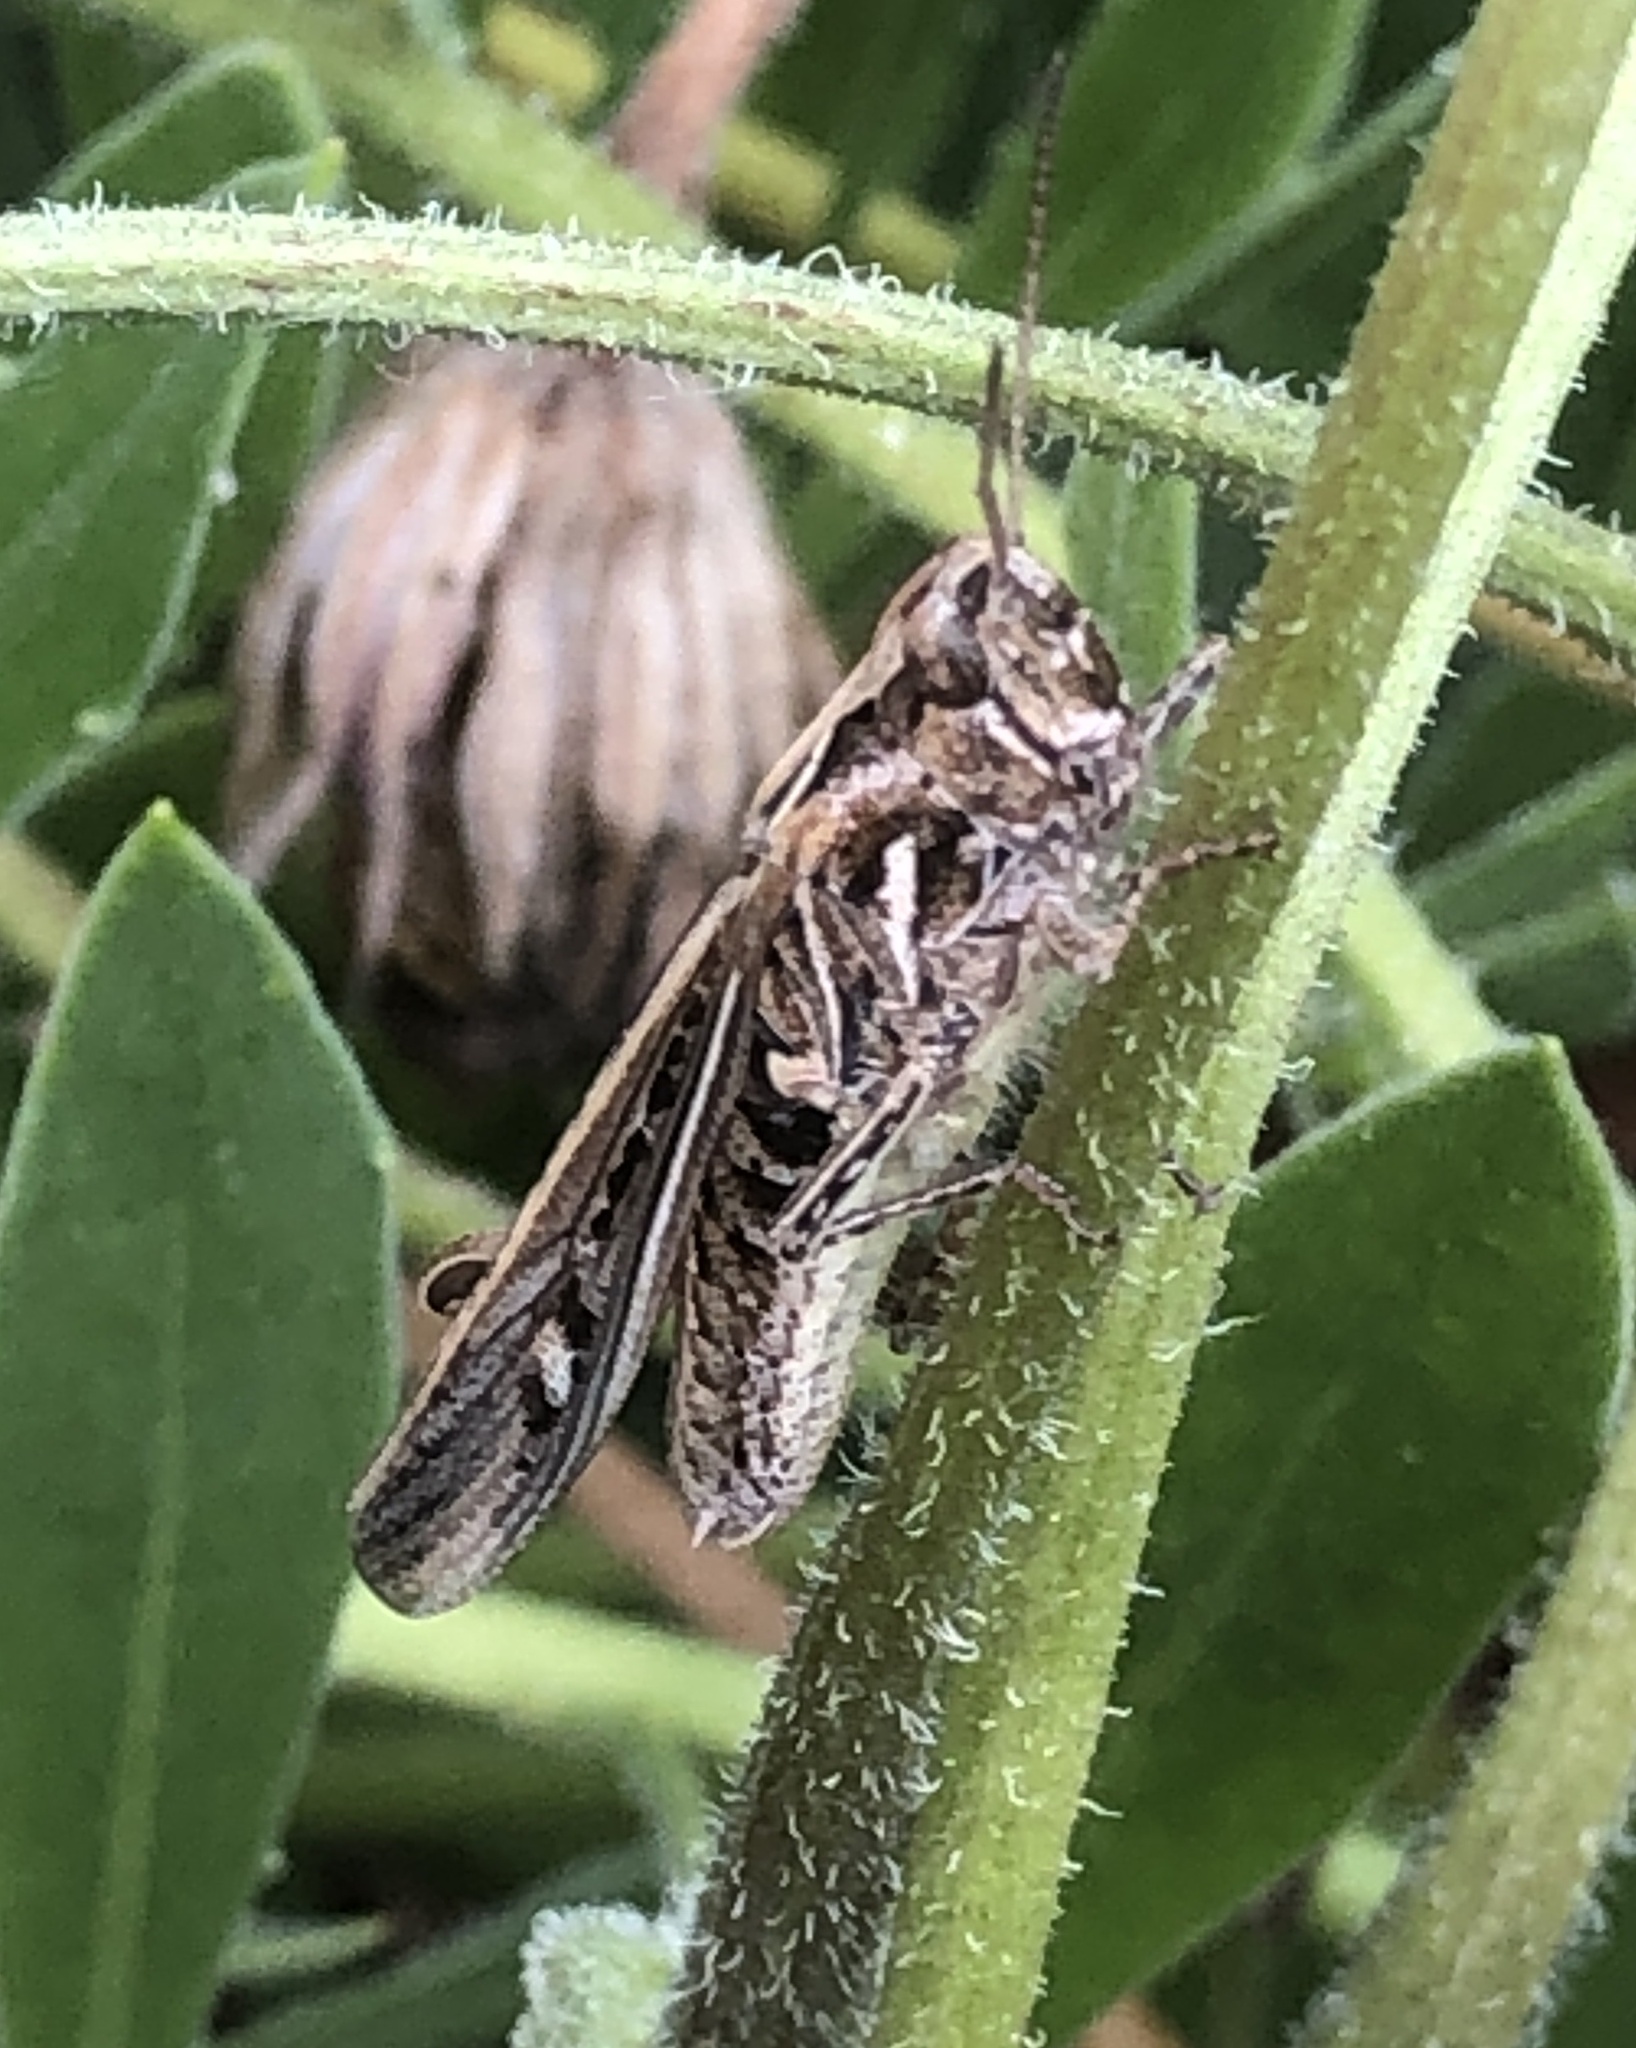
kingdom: Animalia
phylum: Arthropoda
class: Insecta
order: Orthoptera
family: Acrididae
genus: Chorthippus
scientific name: Chorthippus brunneus
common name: Field grasshopper
